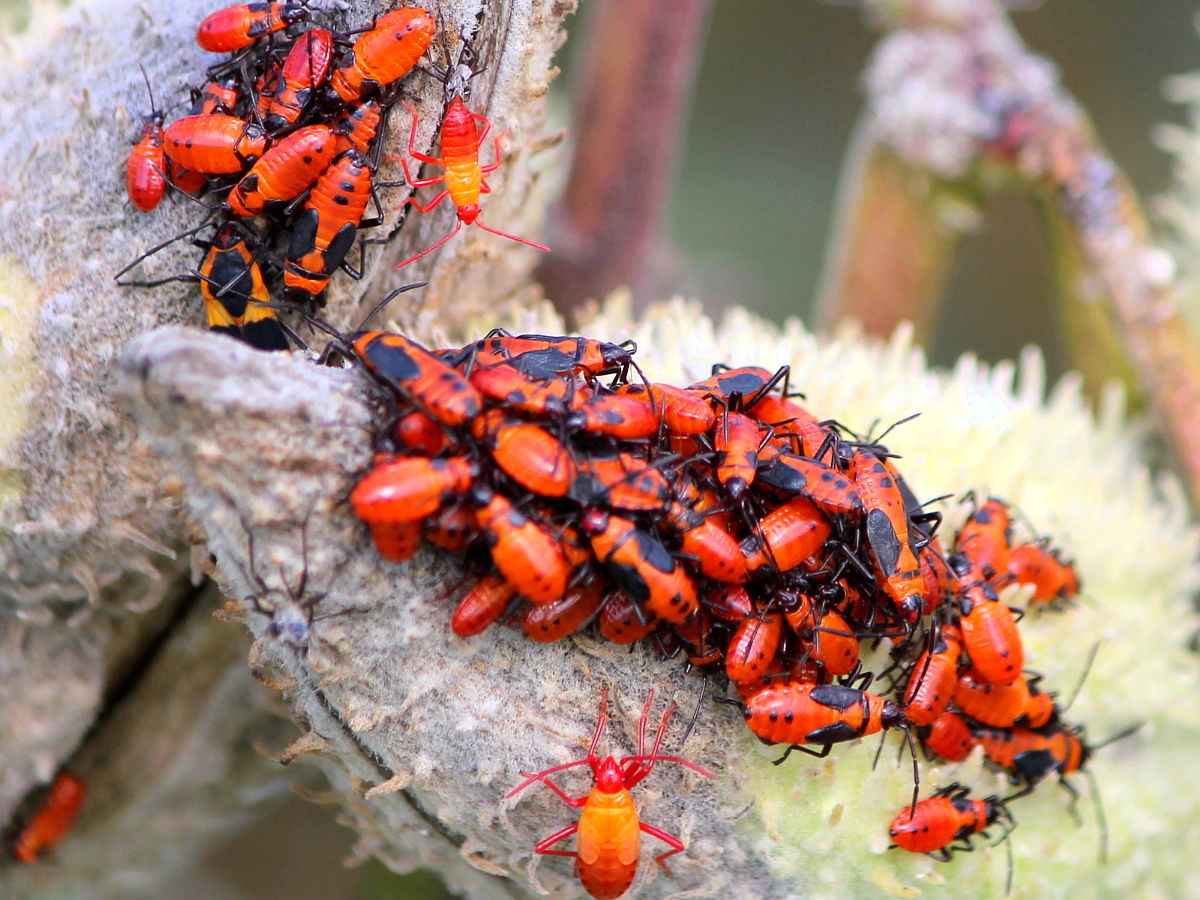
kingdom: Animalia
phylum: Arthropoda
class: Insecta
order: Hemiptera
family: Lygaeidae
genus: Oncopeltus
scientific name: Oncopeltus fasciatus
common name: Large milkweed bug
